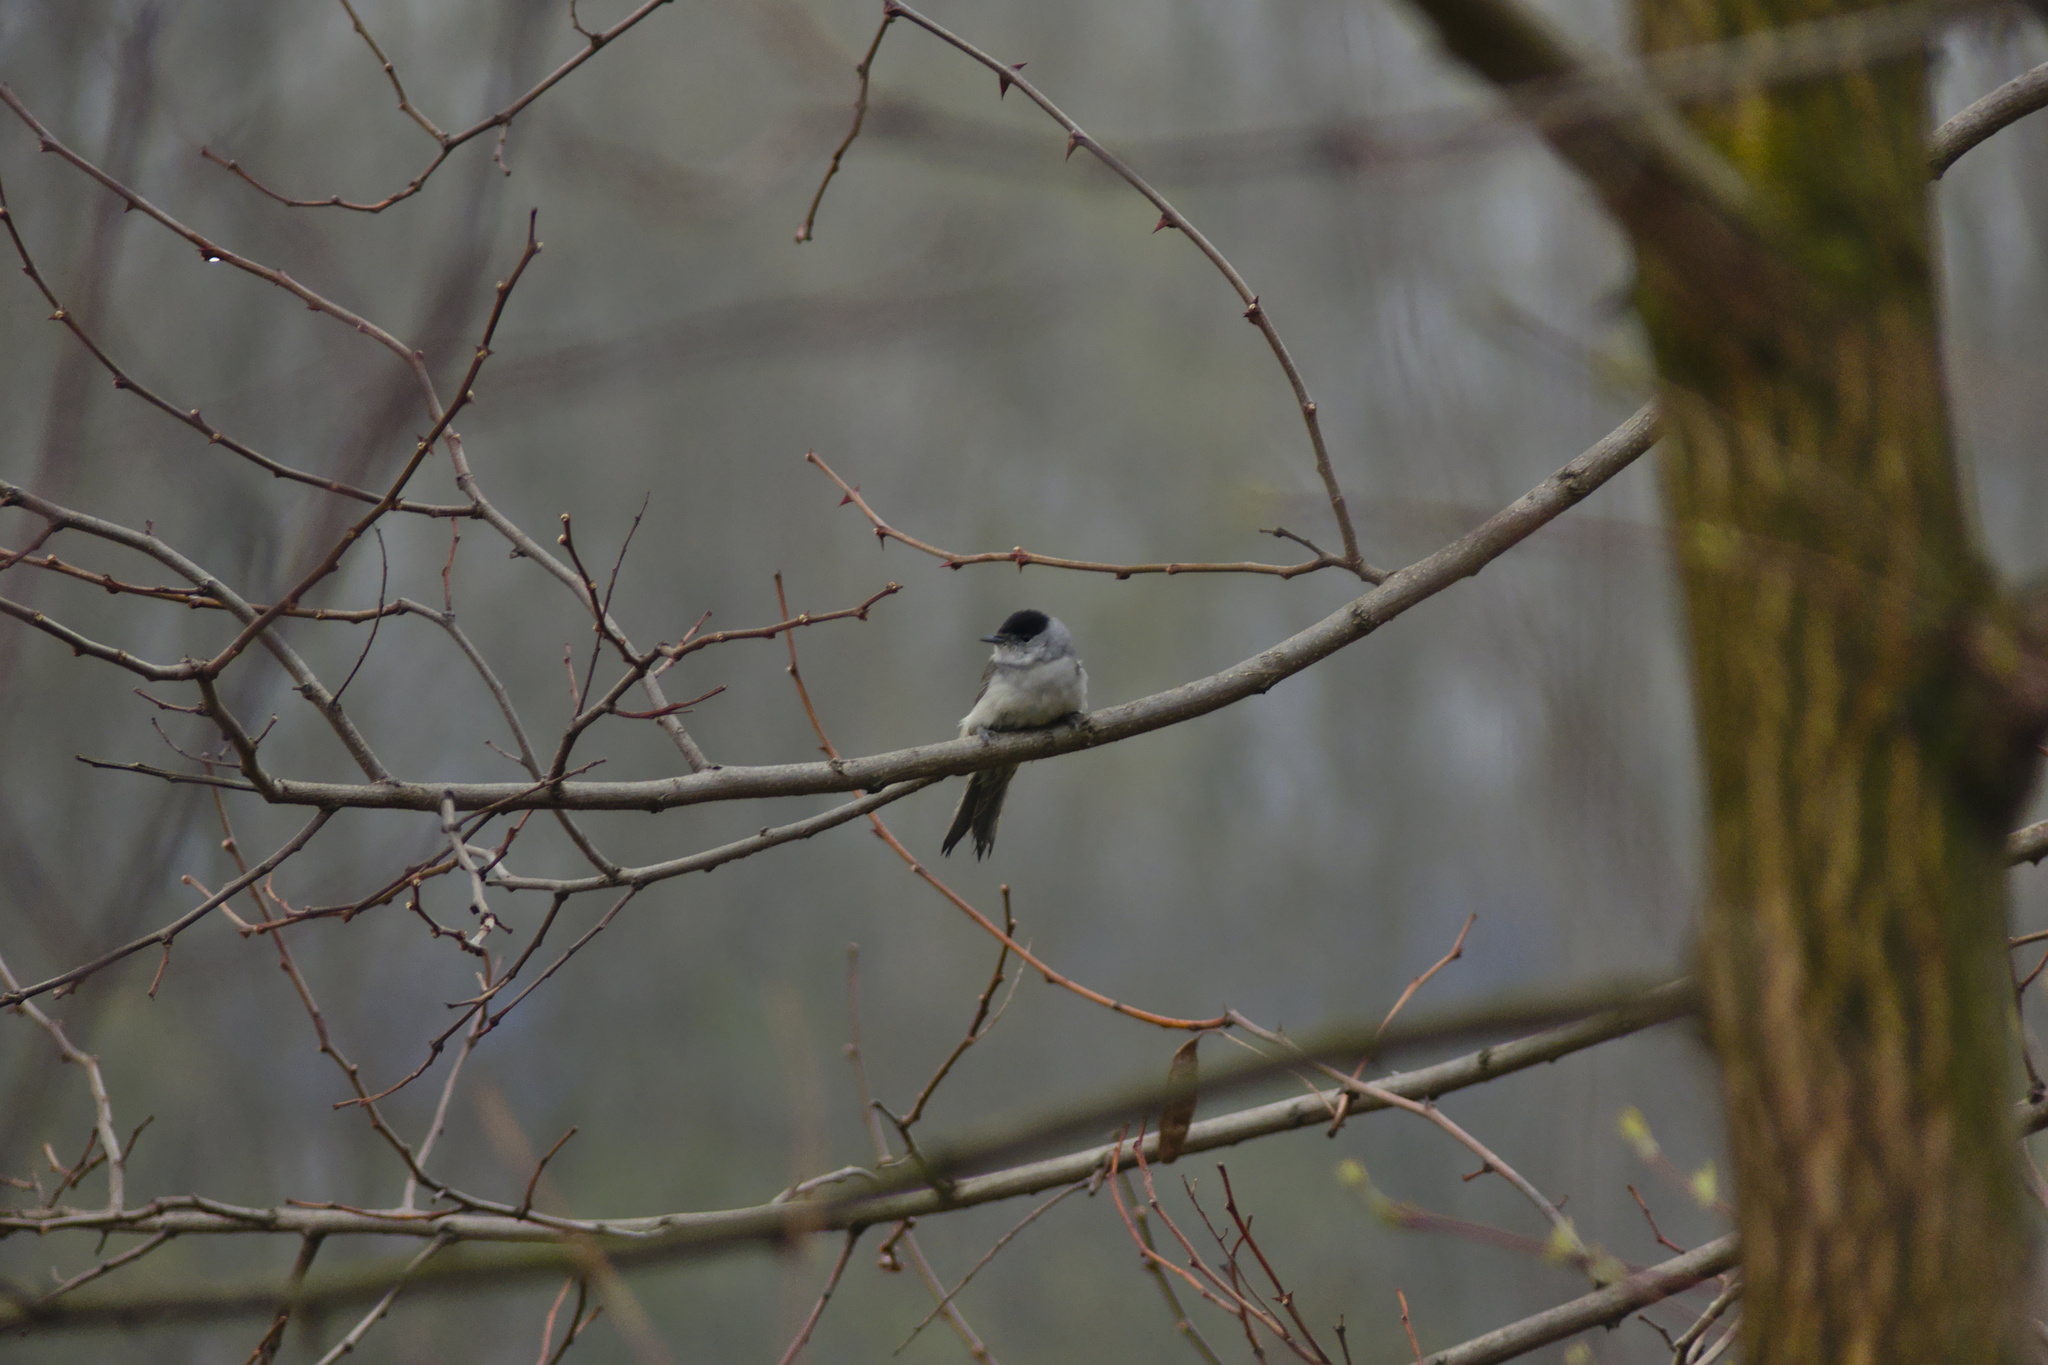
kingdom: Animalia
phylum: Chordata
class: Aves
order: Passeriformes
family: Sylviidae
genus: Sylvia
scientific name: Sylvia atricapilla
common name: Eurasian blackcap
